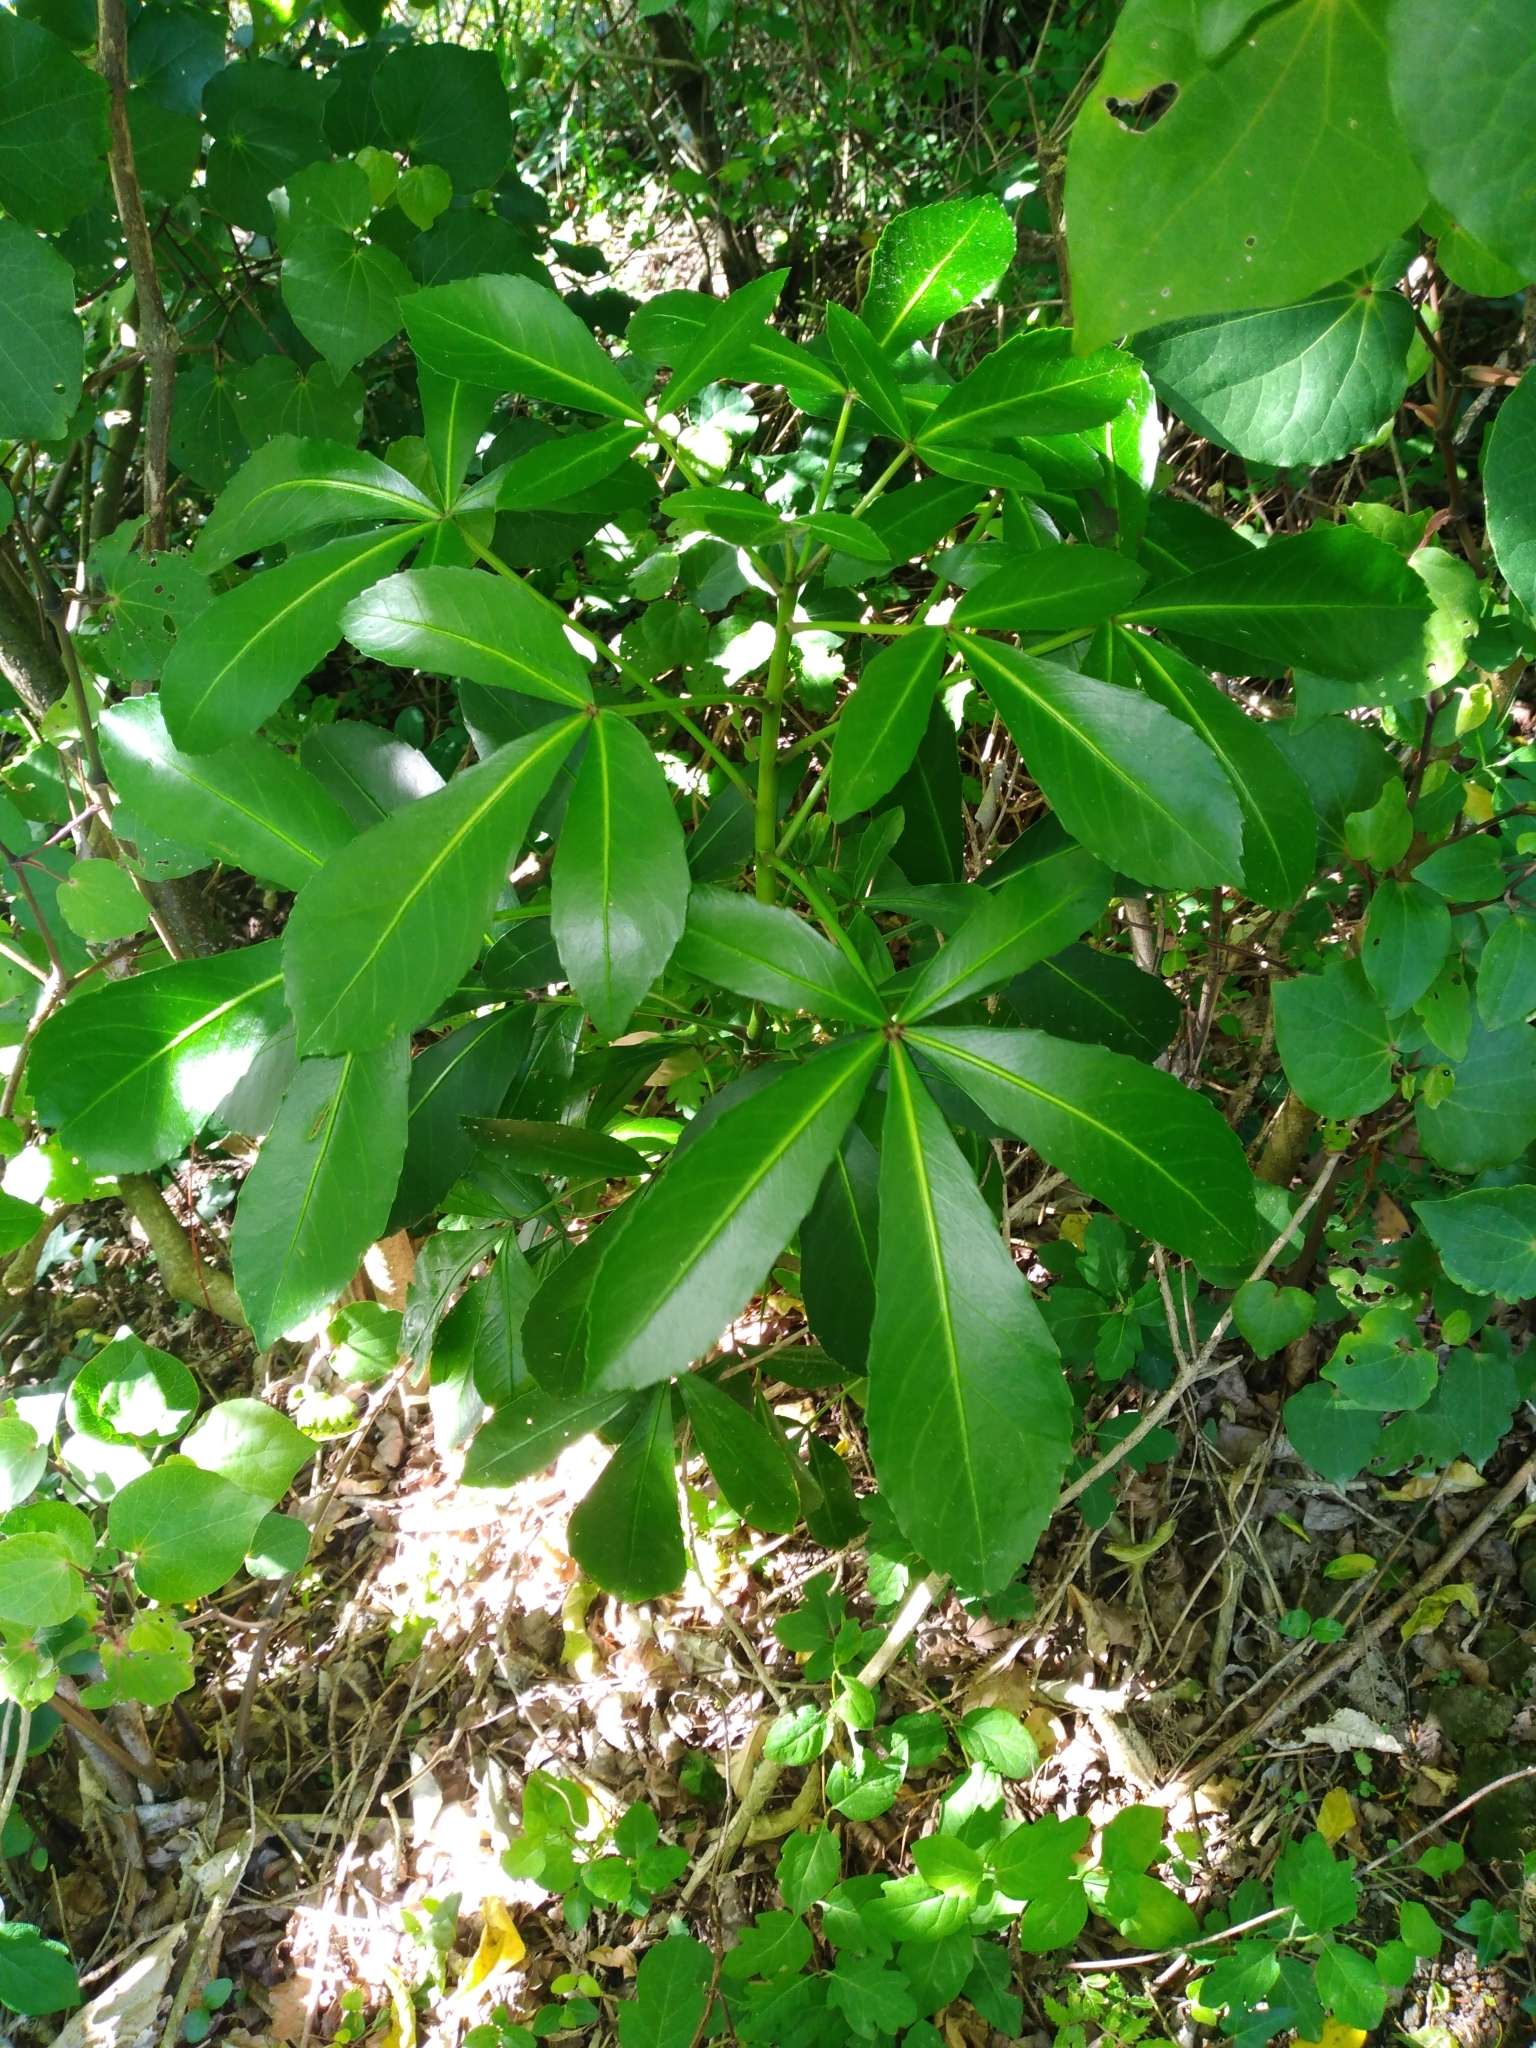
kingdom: Plantae
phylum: Tracheophyta
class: Magnoliopsida
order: Apiales
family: Araliaceae
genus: Pseudopanax
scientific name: Pseudopanax lessonii
